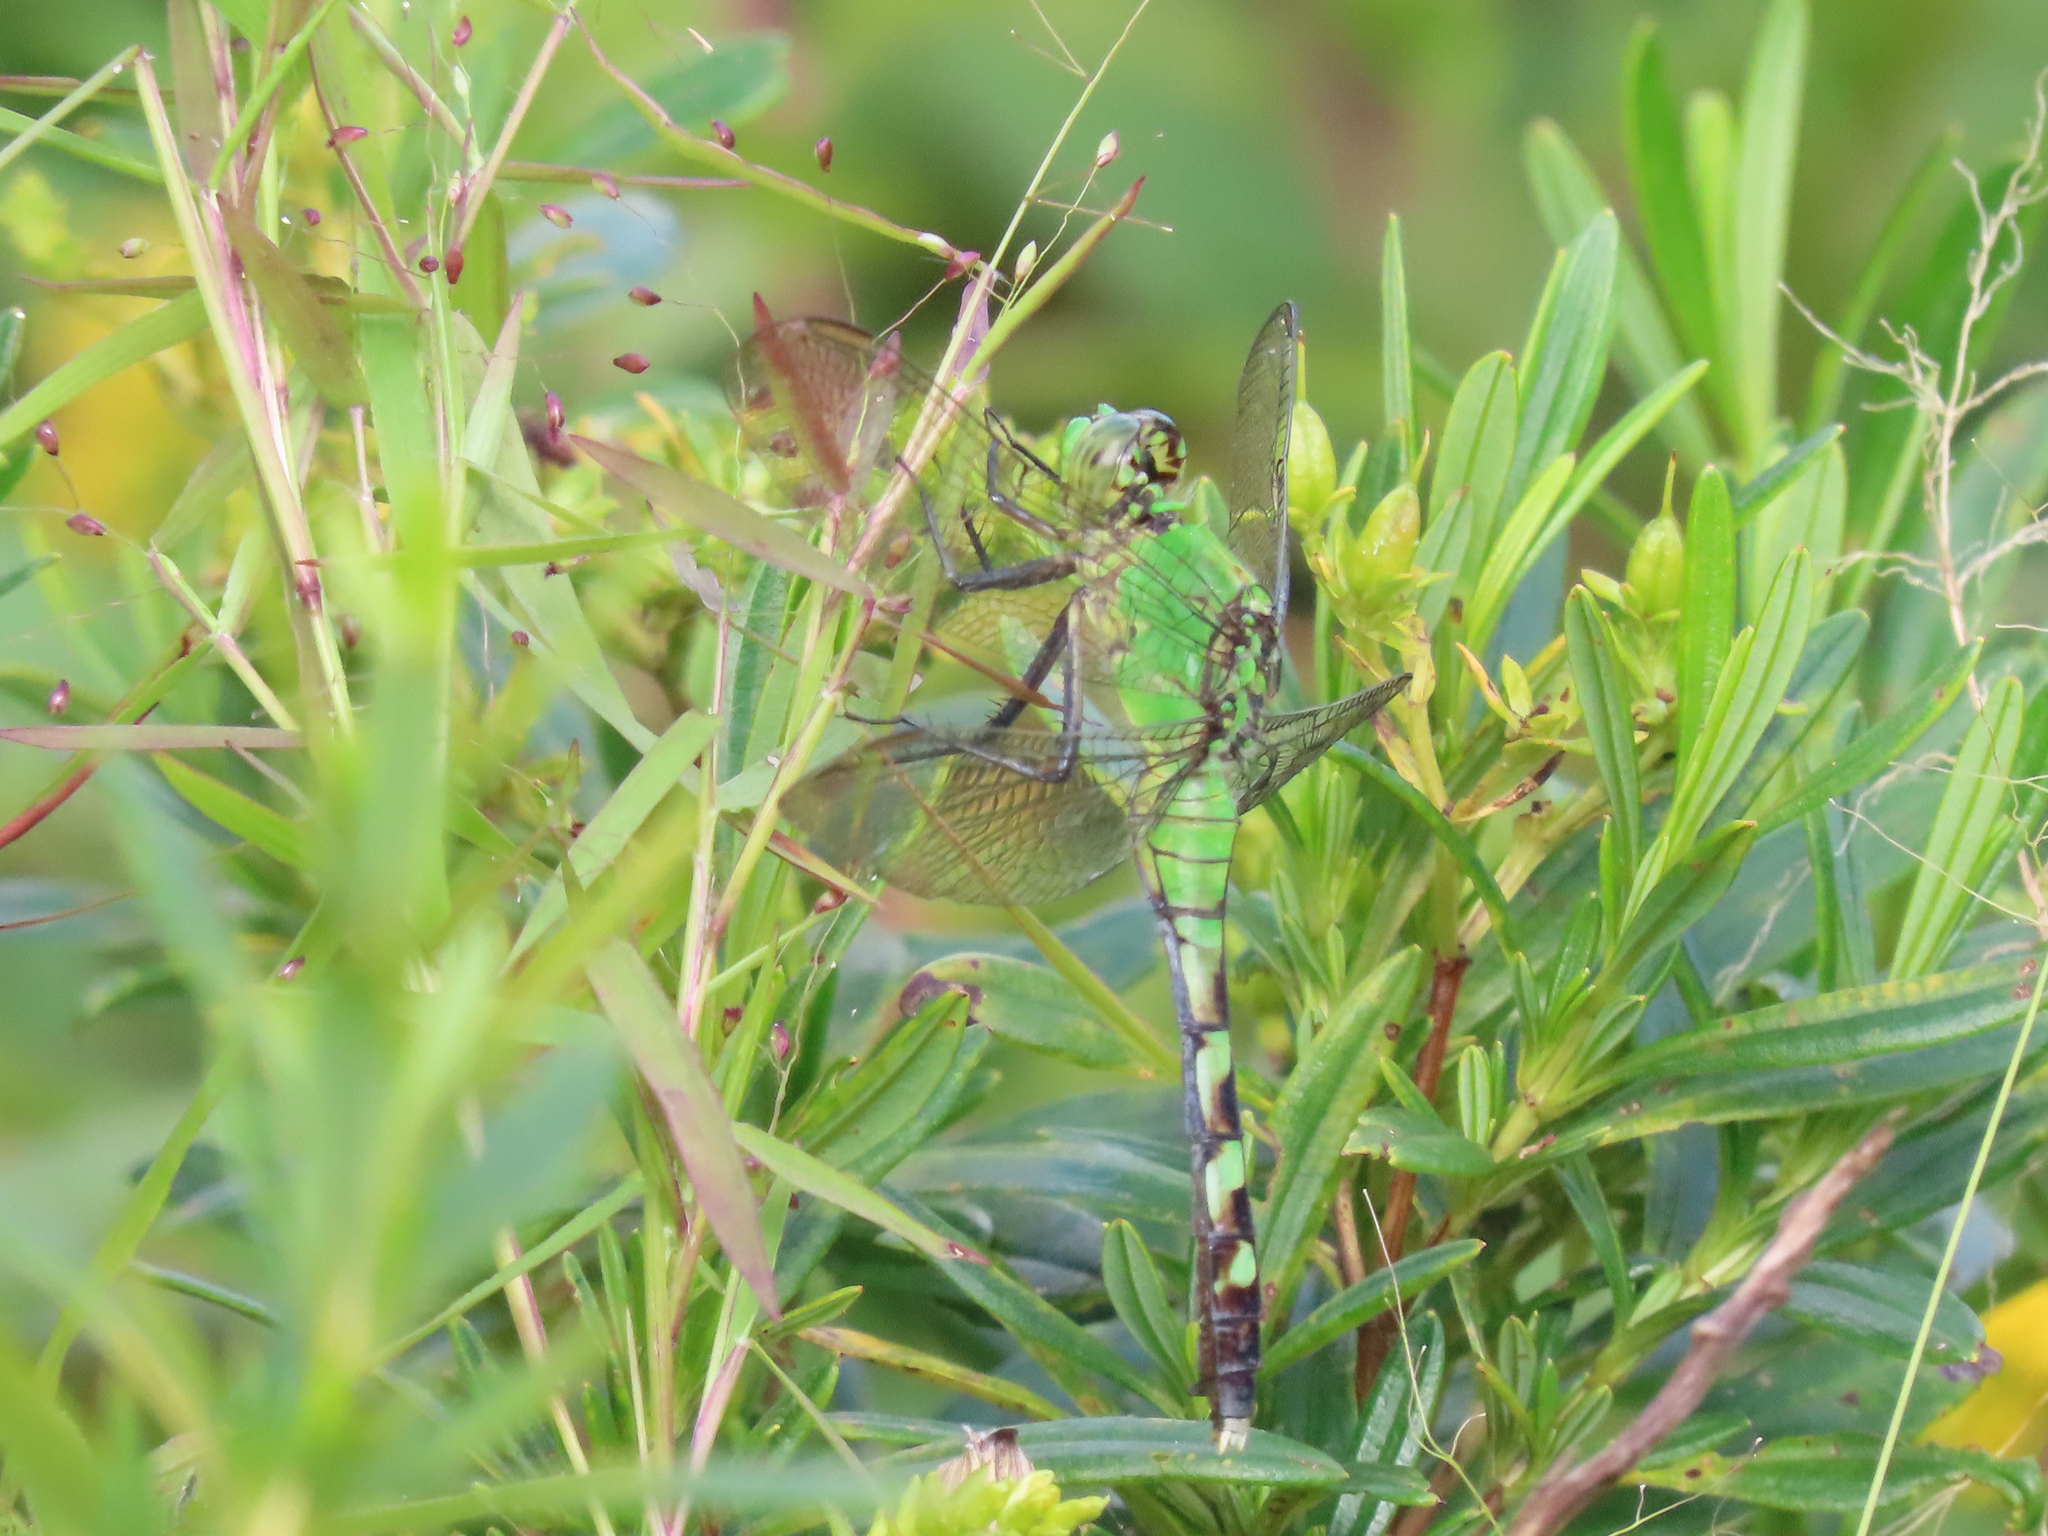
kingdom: Animalia
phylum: Arthropoda
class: Insecta
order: Odonata
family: Libellulidae
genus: Erythemis
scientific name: Erythemis simplicicollis
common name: Eastern pondhawk
